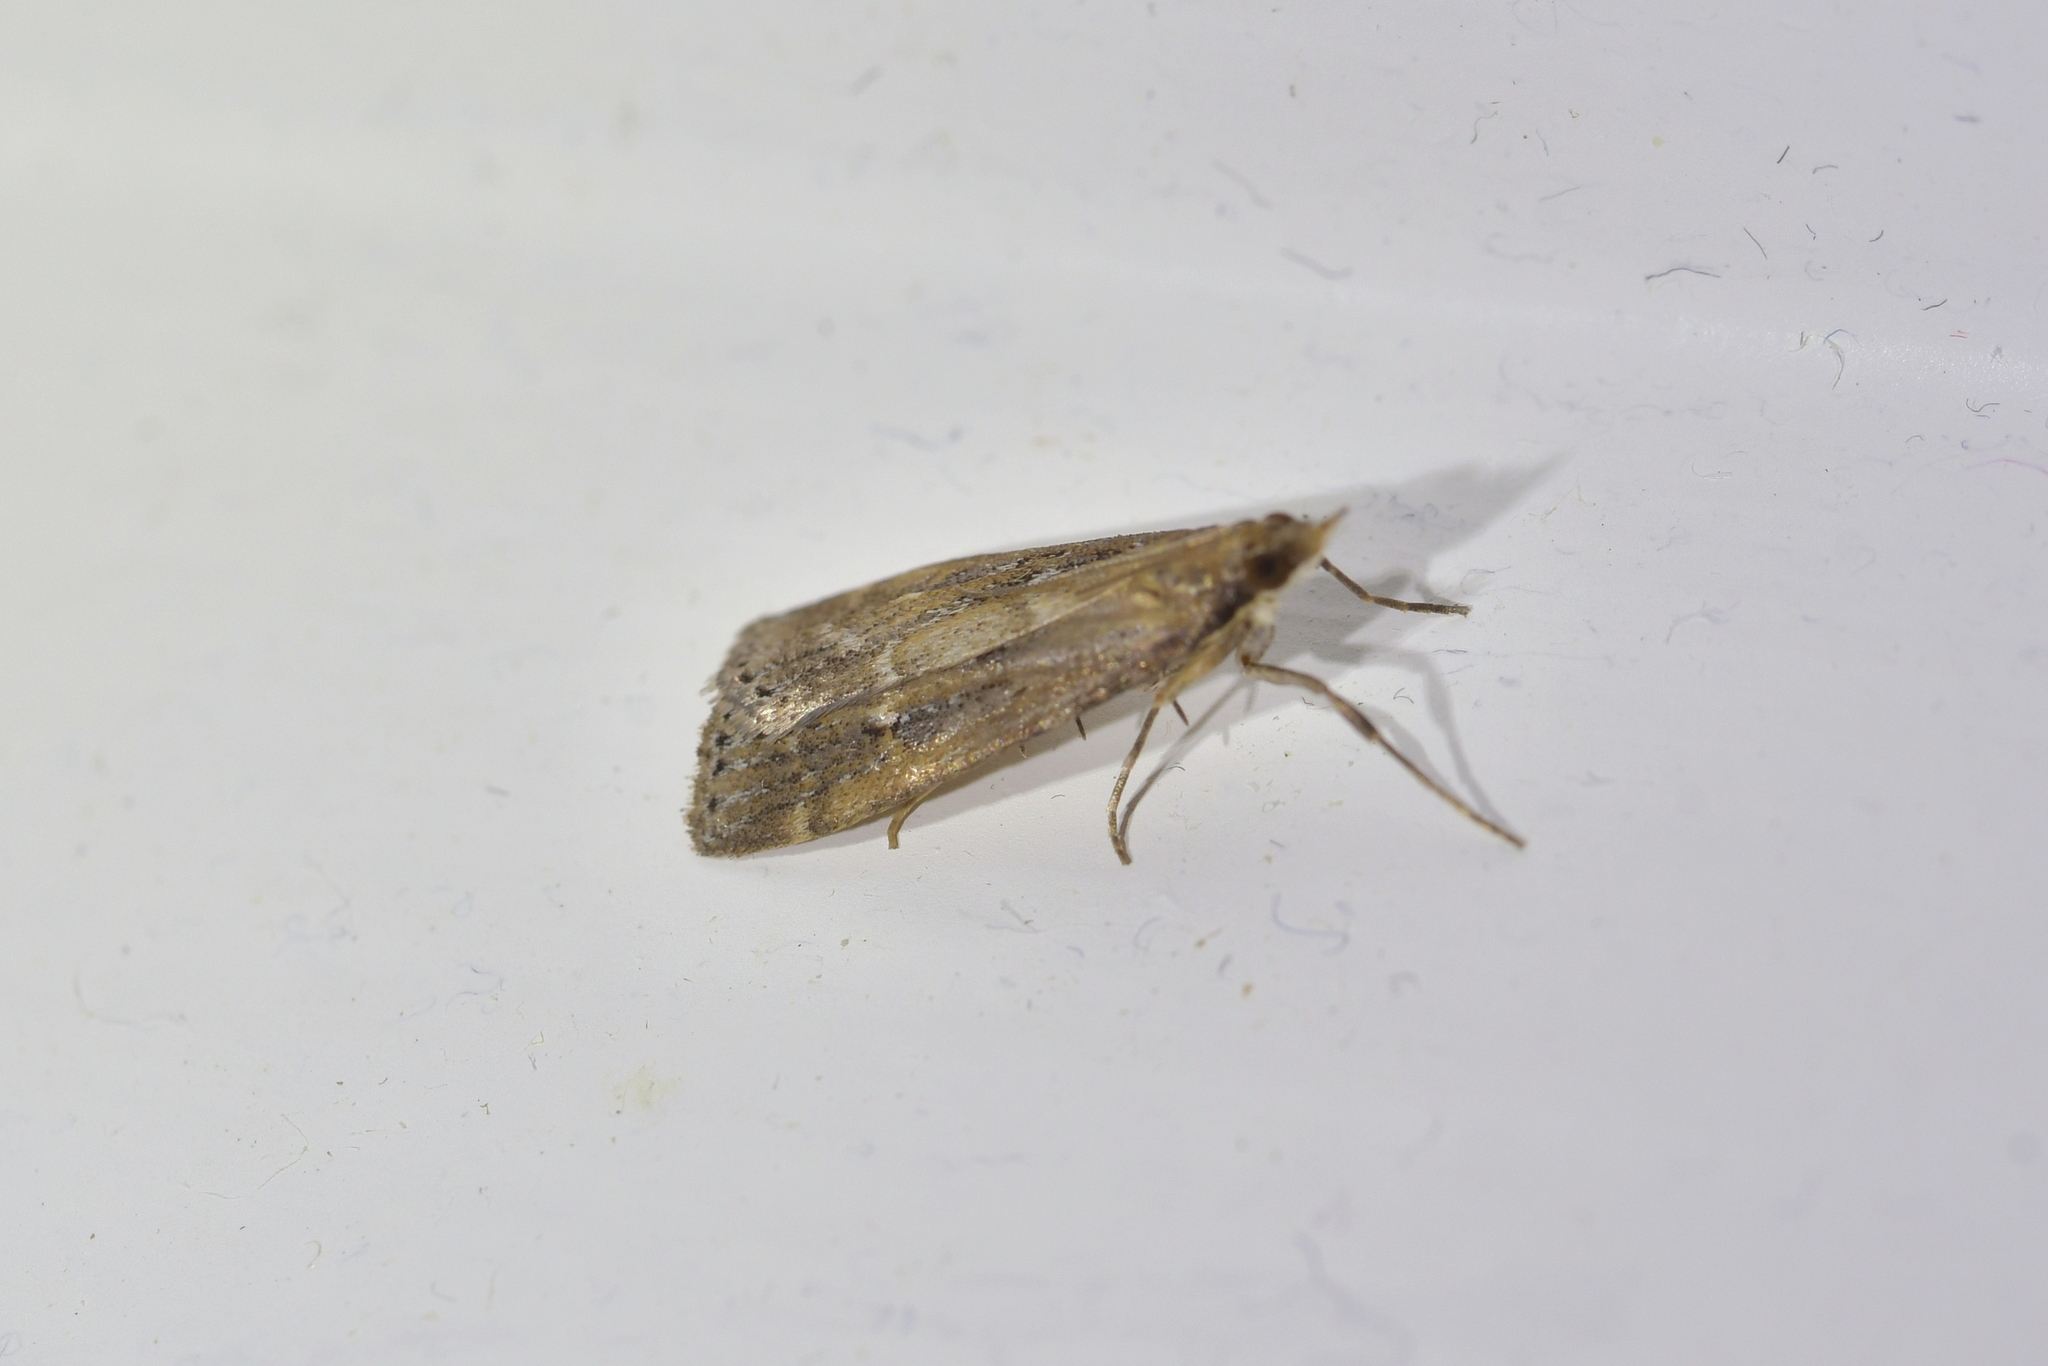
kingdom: Animalia
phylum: Arthropoda
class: Insecta
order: Lepidoptera
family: Crambidae
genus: Eudonia
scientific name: Eudonia octophora
